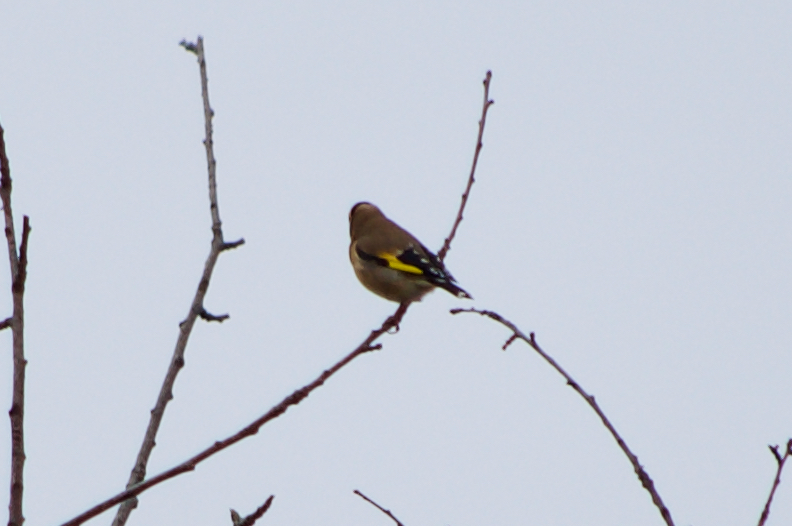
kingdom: Animalia
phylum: Chordata
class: Aves
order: Passeriformes
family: Fringillidae
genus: Carduelis
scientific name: Carduelis carduelis
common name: European goldfinch
